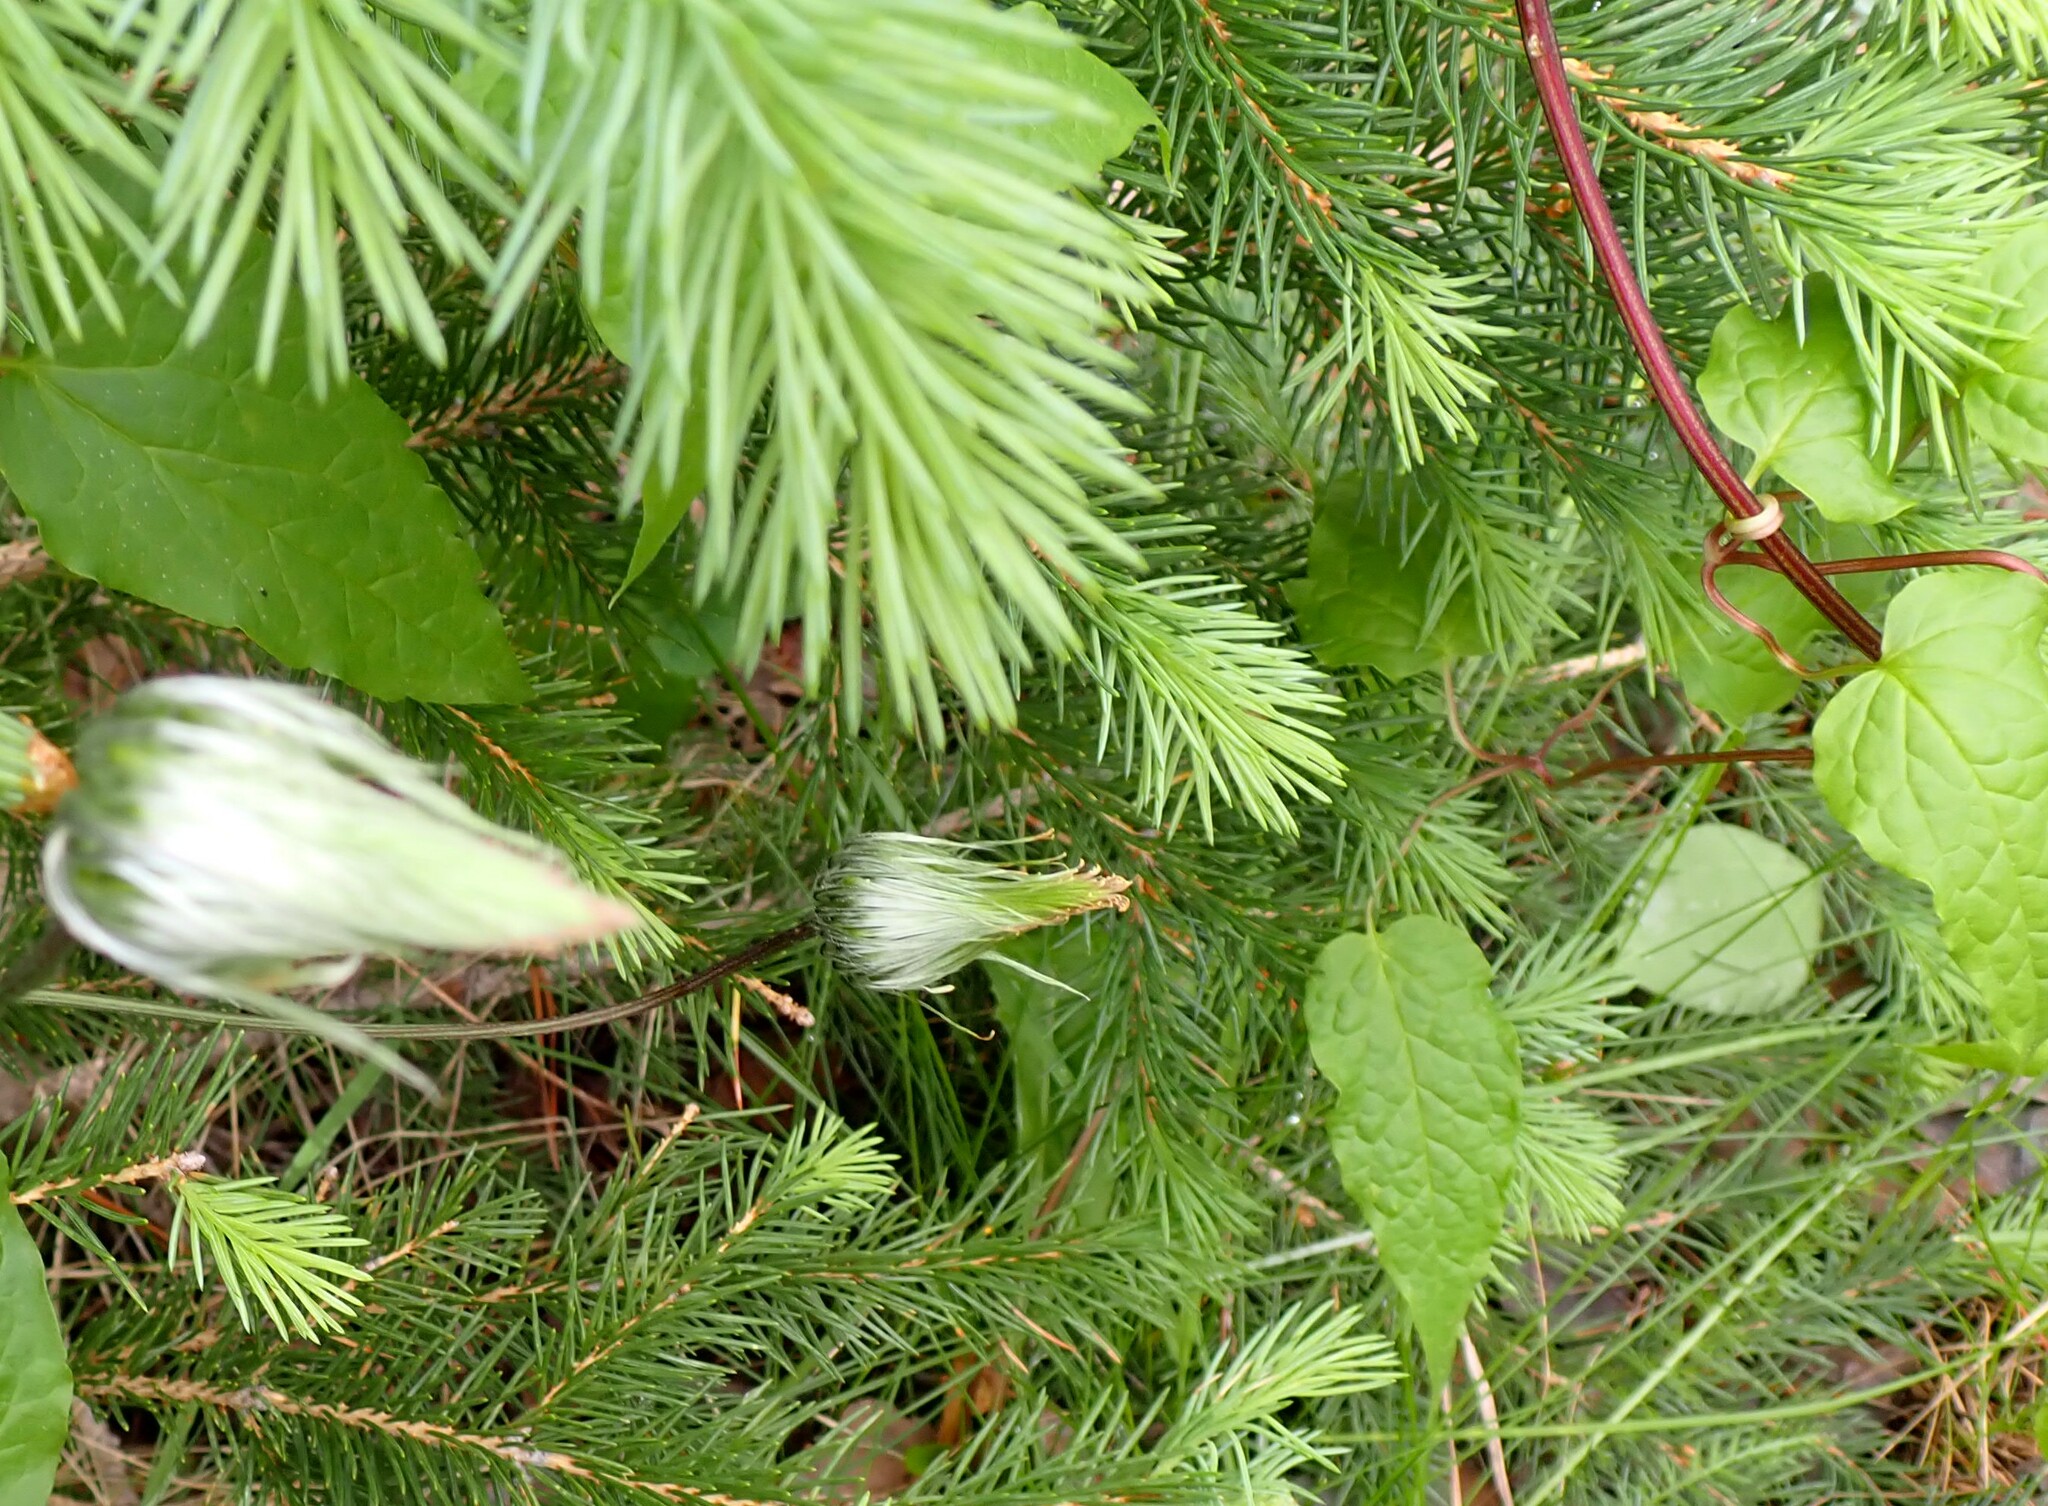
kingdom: Plantae
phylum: Tracheophyta
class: Magnoliopsida
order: Ranunculales
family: Ranunculaceae
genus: Clematis
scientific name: Clematis occidentalis
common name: Purple clematis
